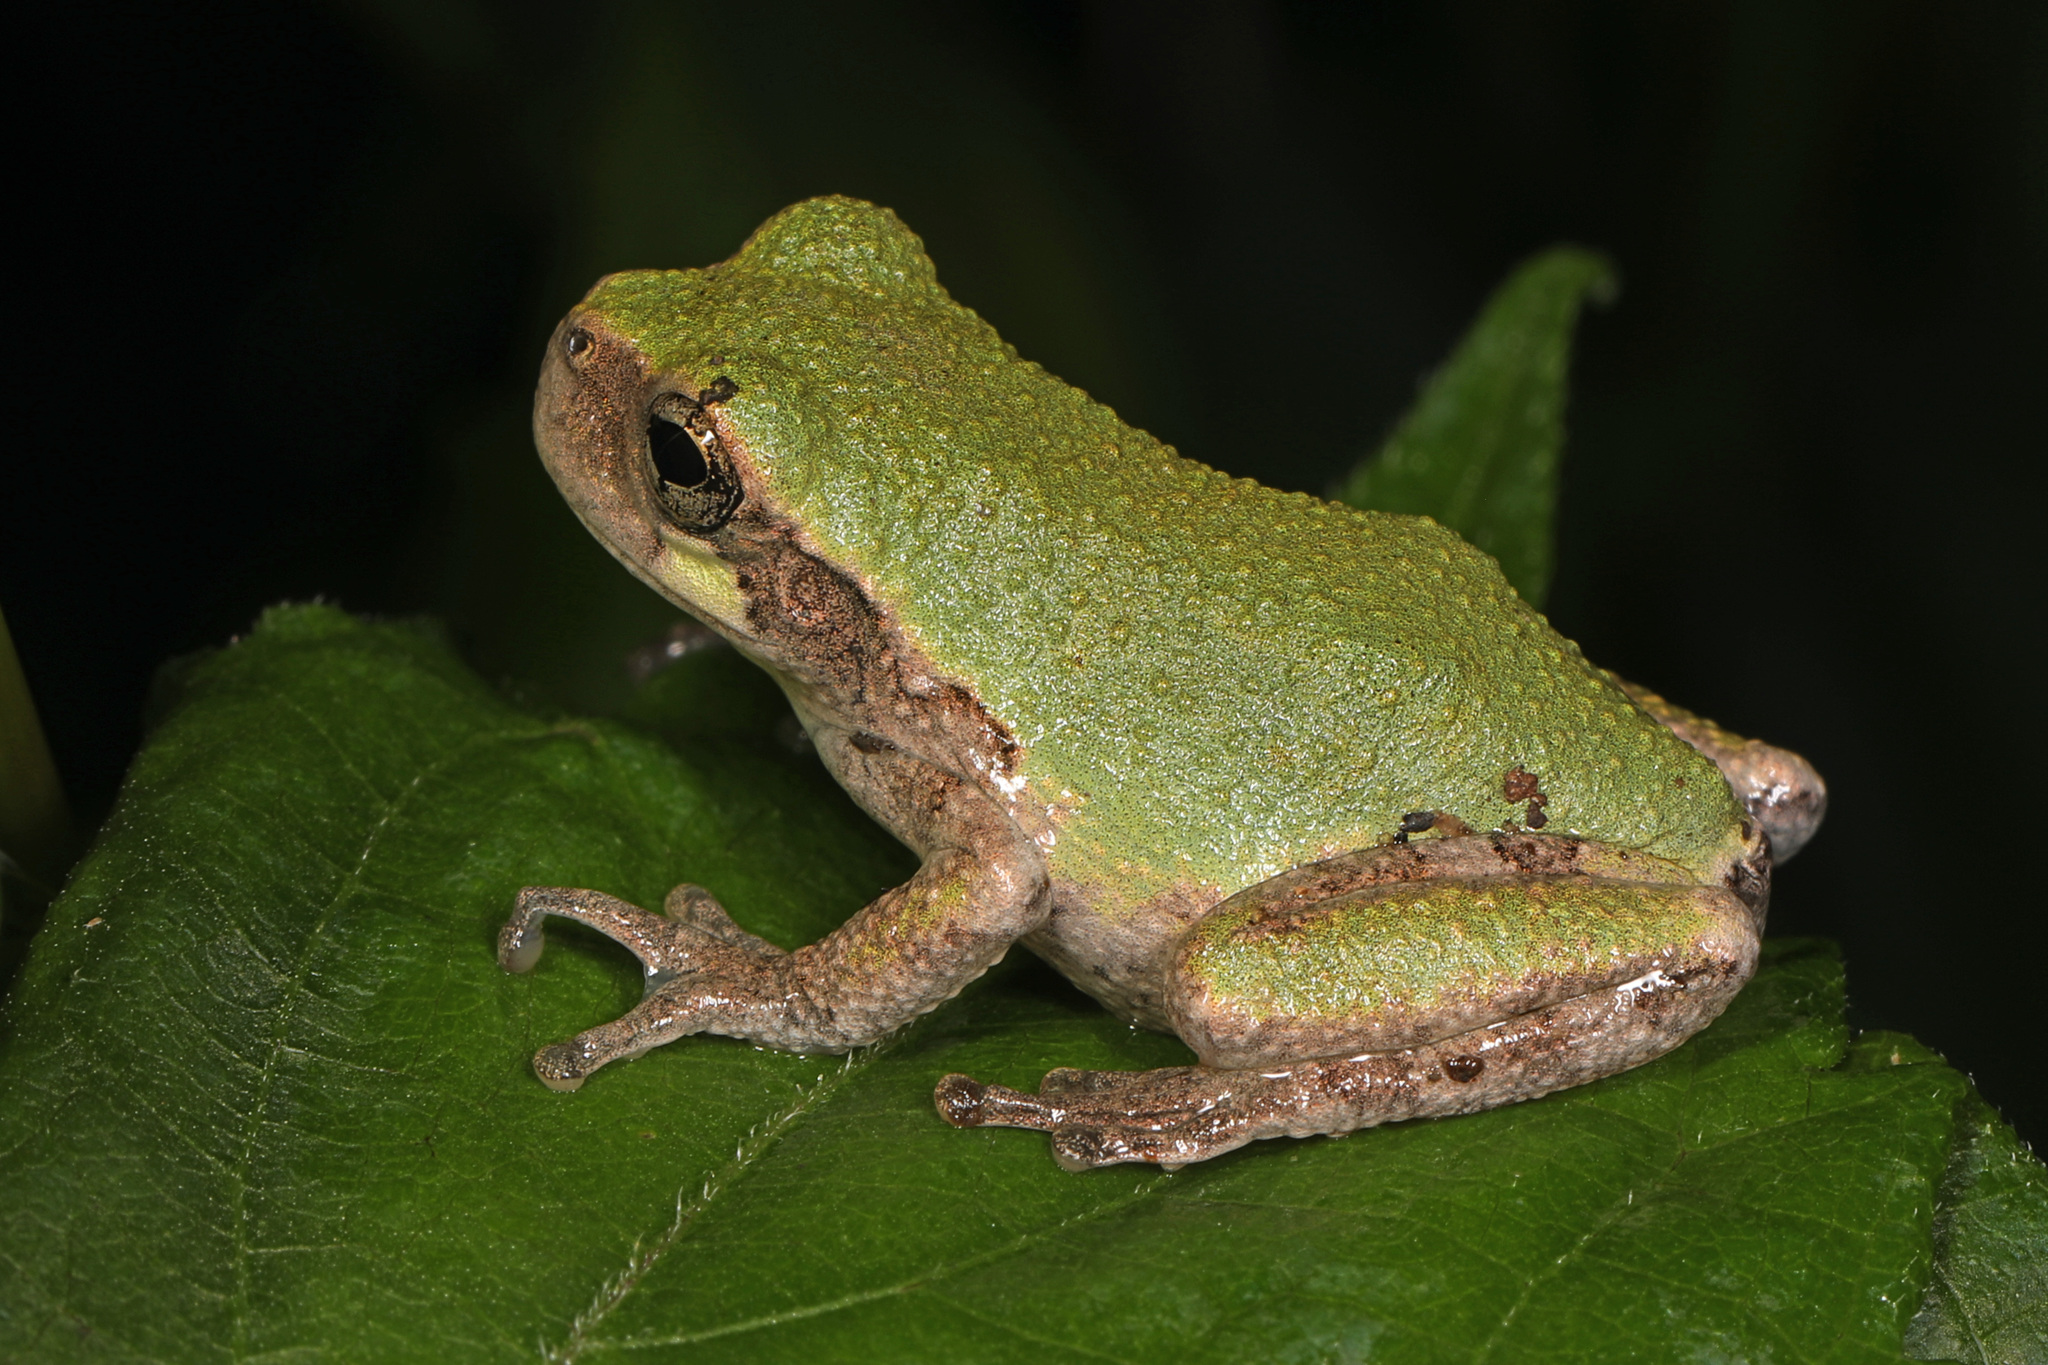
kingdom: Animalia
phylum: Chordata
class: Amphibia
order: Anura
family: Hylidae
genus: Hyla
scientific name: Hyla
